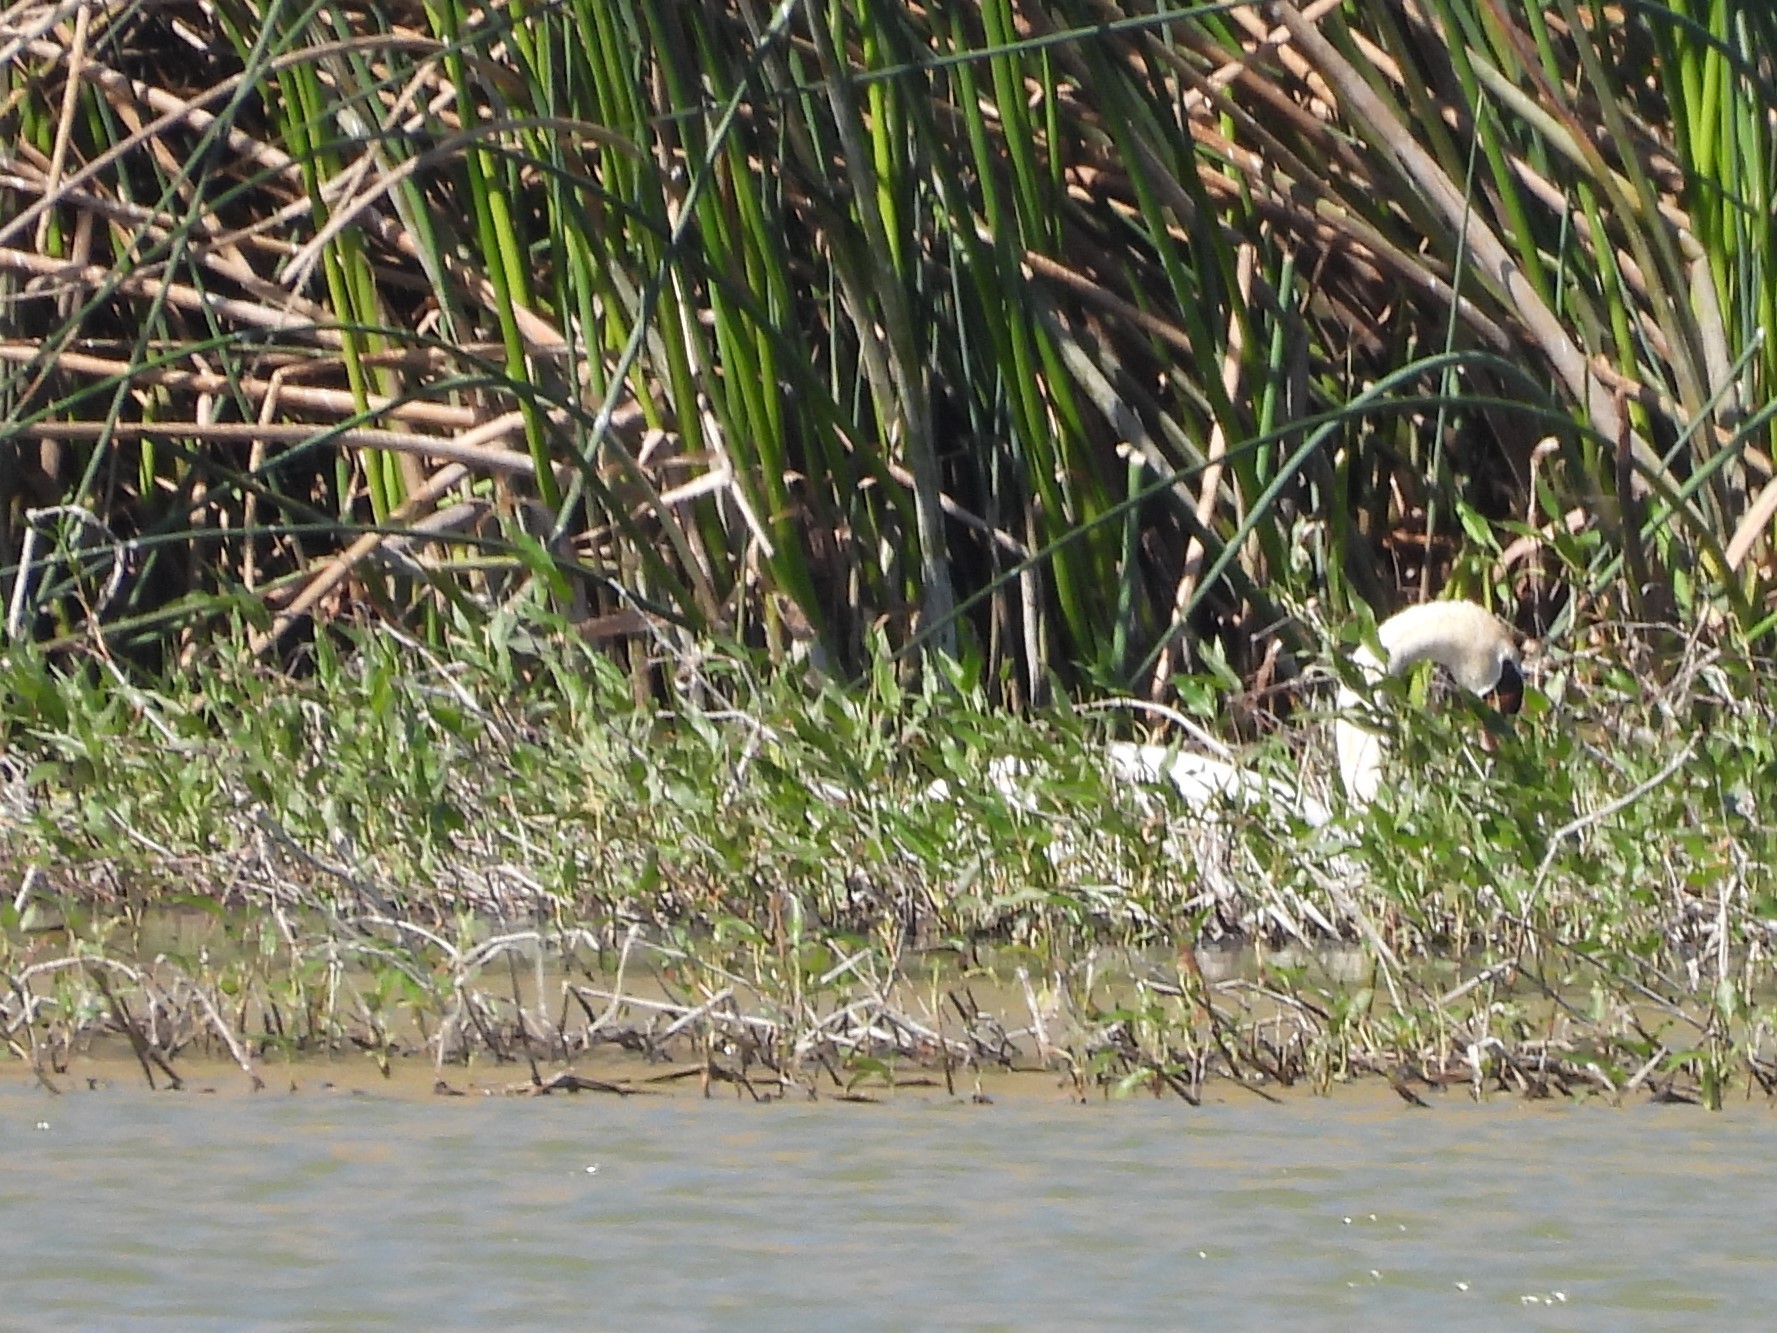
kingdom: Animalia
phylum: Chordata
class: Aves
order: Anseriformes
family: Anatidae
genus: Cygnus
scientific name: Cygnus olor
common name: Mute swan
